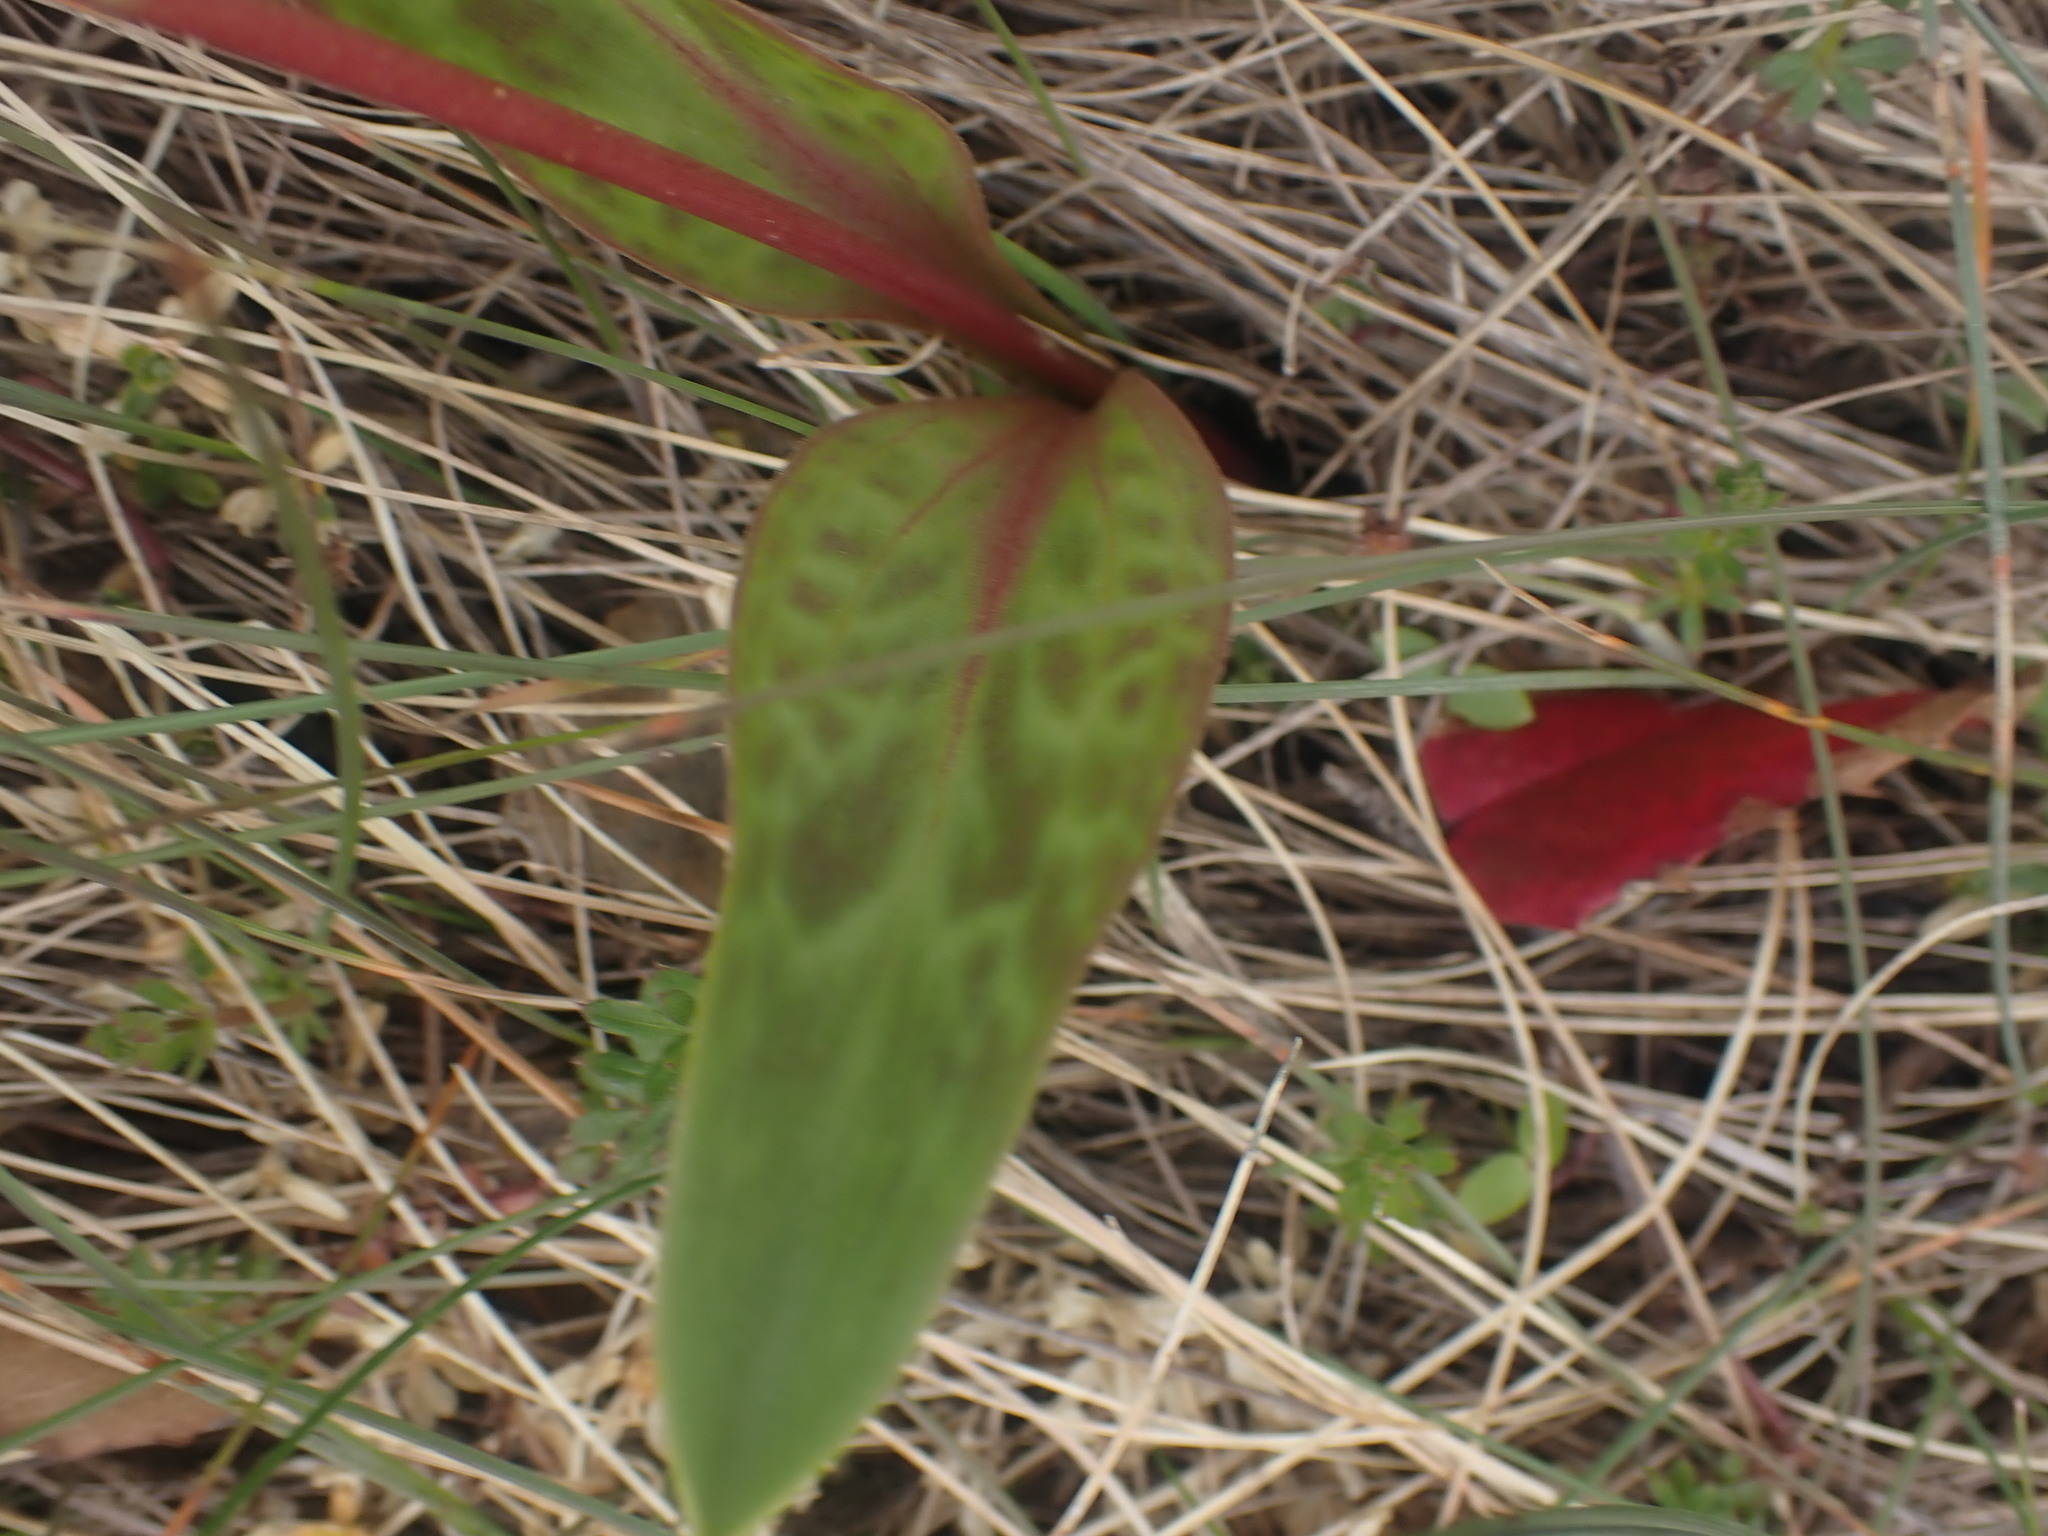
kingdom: Plantae
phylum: Tracheophyta
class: Liliopsida
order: Liliales
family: Liliaceae
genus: Erythronium
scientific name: Erythronium oregonum
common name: Giant adder's-tongue
